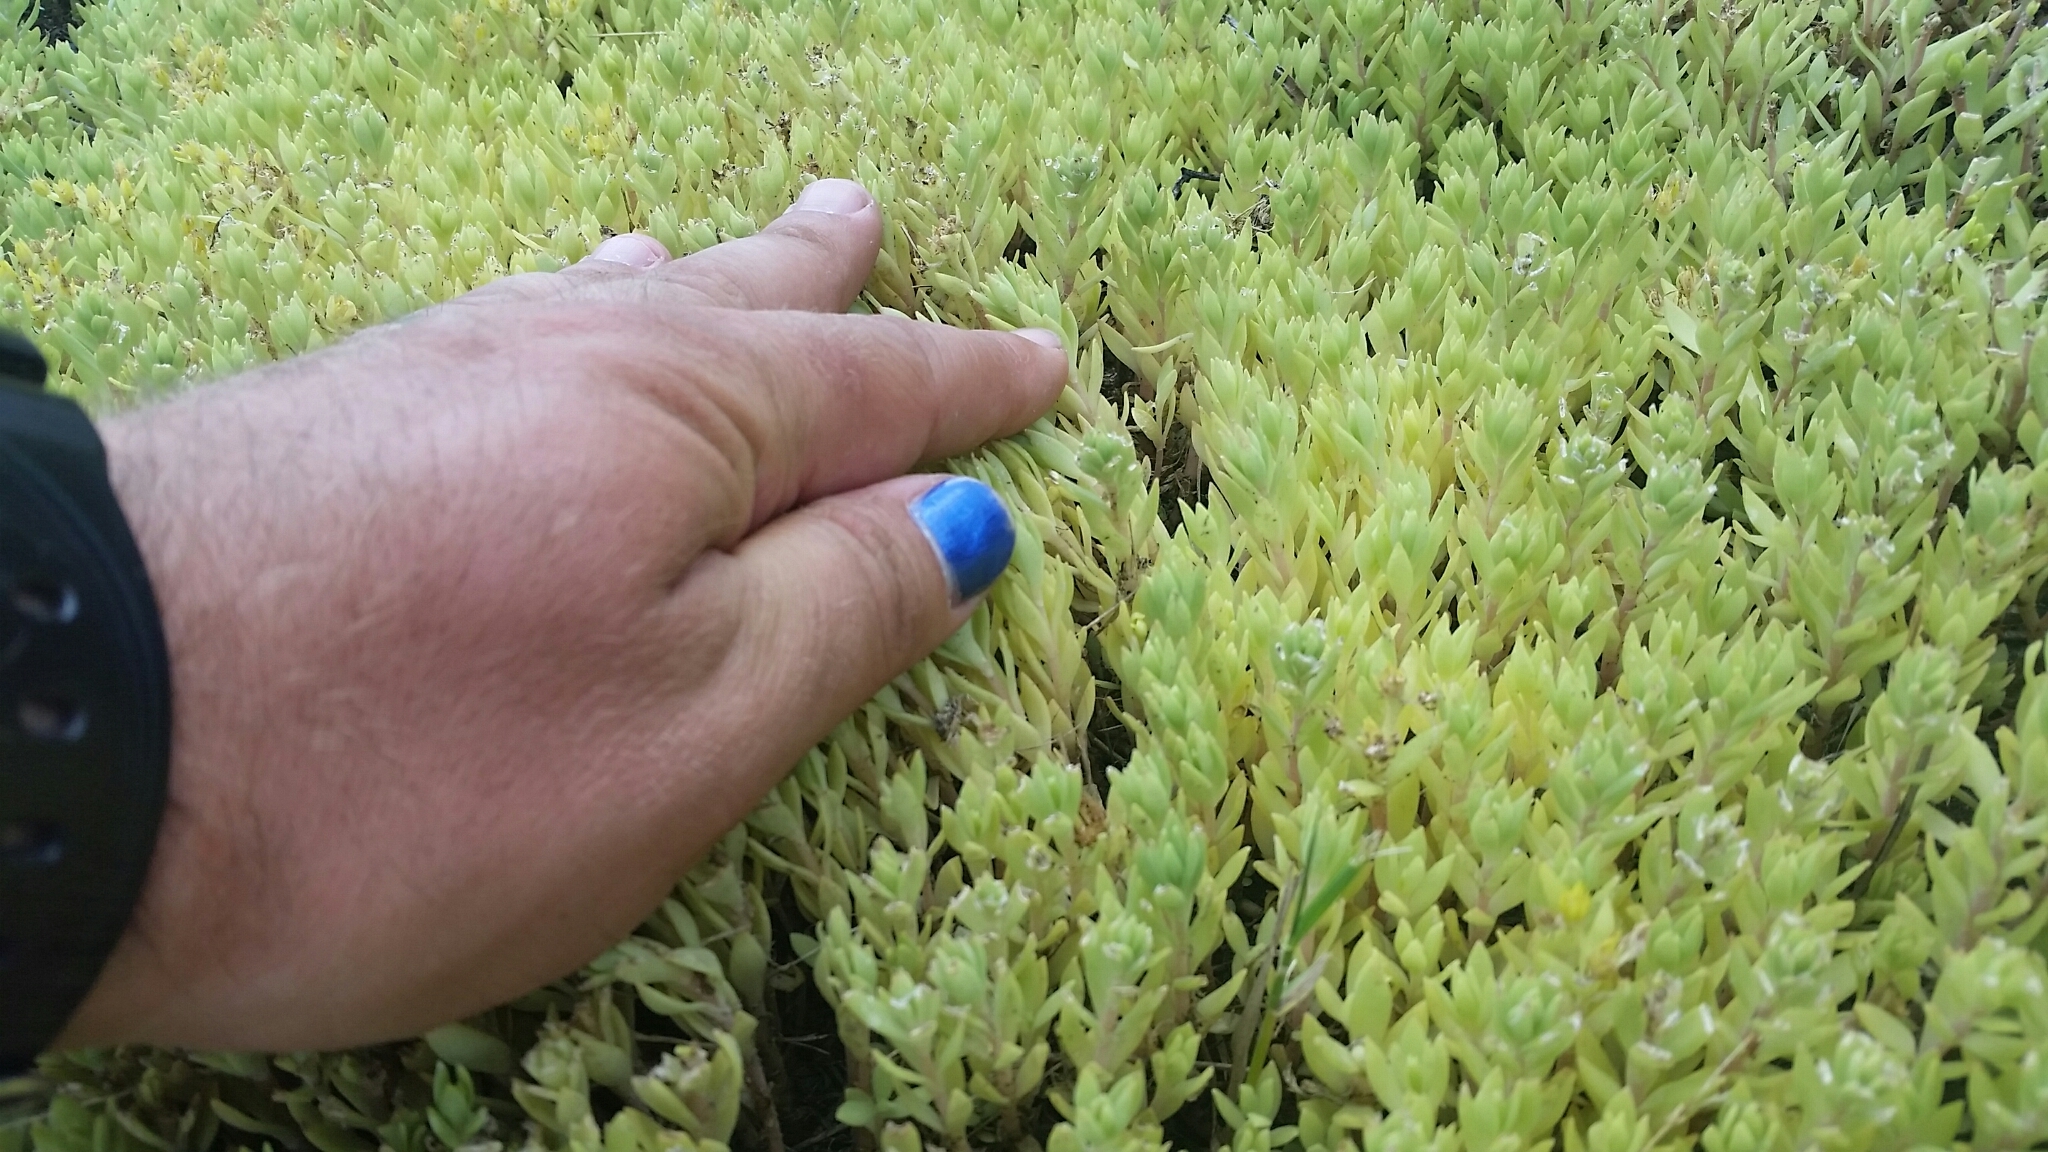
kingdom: Plantae
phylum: Tracheophyta
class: Magnoliopsida
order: Saxifragales
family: Crassulaceae
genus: Sedum
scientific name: Sedum sarmentosum
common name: Stringy stonecrop
